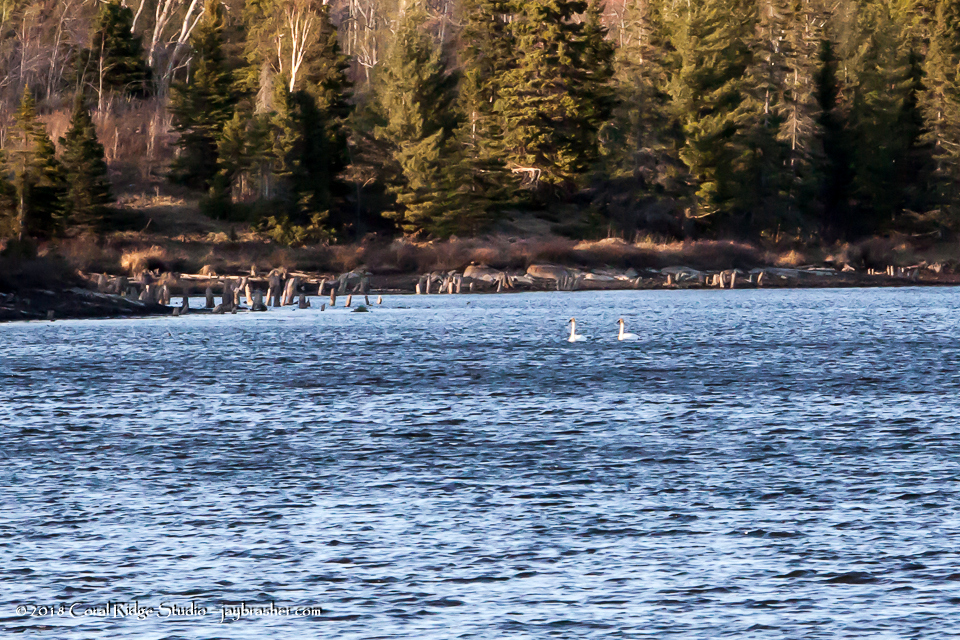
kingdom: Animalia
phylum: Chordata
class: Aves
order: Anseriformes
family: Anatidae
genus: Cygnus
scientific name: Cygnus buccinator
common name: Trumpeter swan
